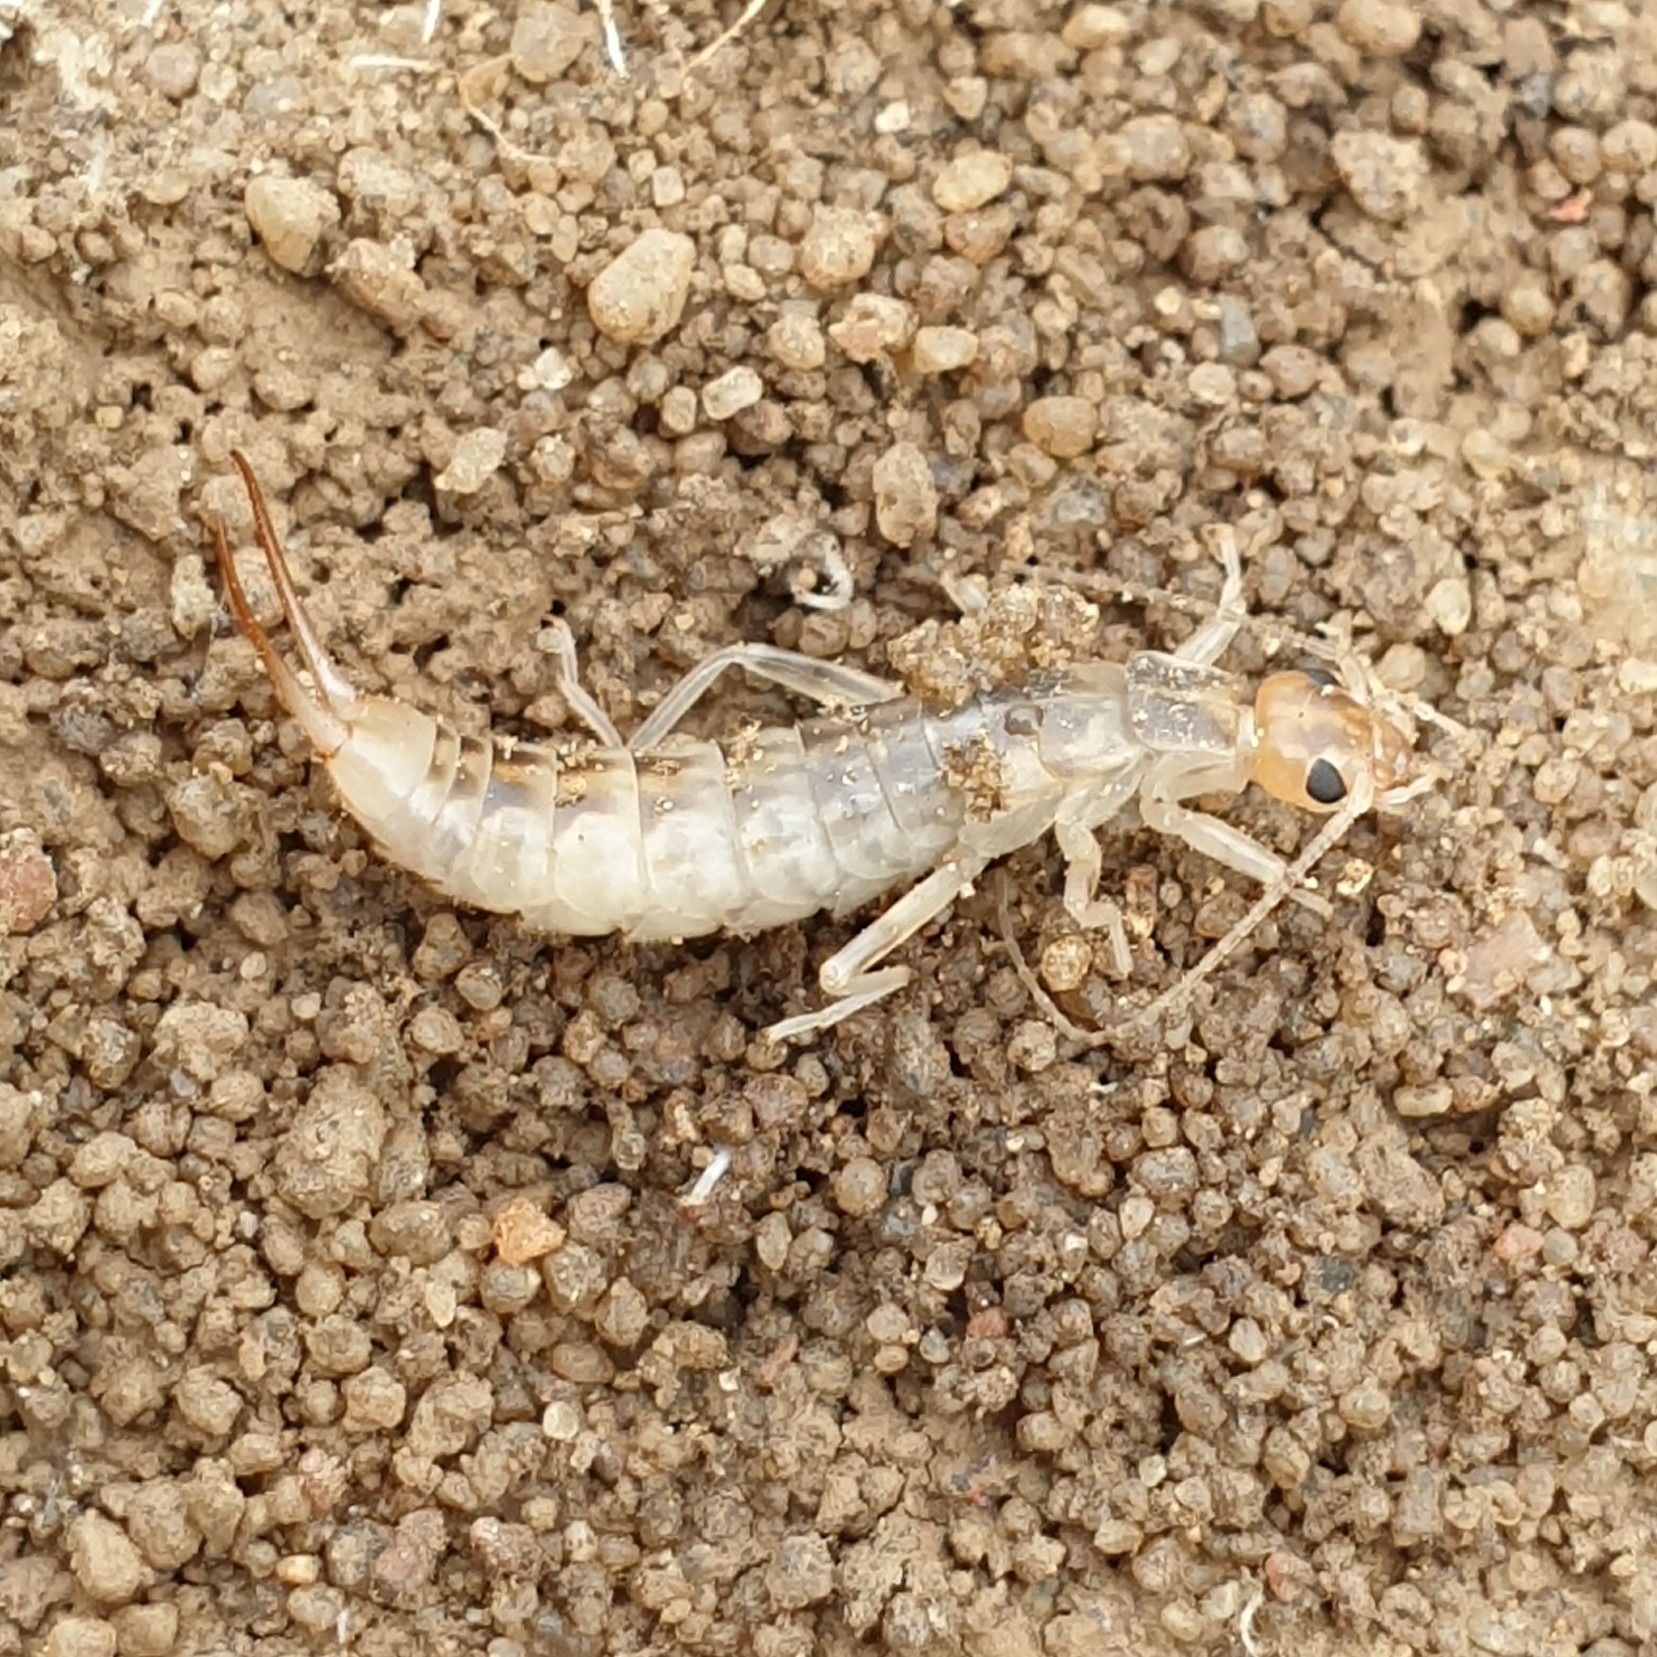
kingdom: Animalia
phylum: Arthropoda
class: Insecta
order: Dermaptera
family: Labiduridae
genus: Labidura
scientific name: Labidura riparia
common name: Striped earwig
